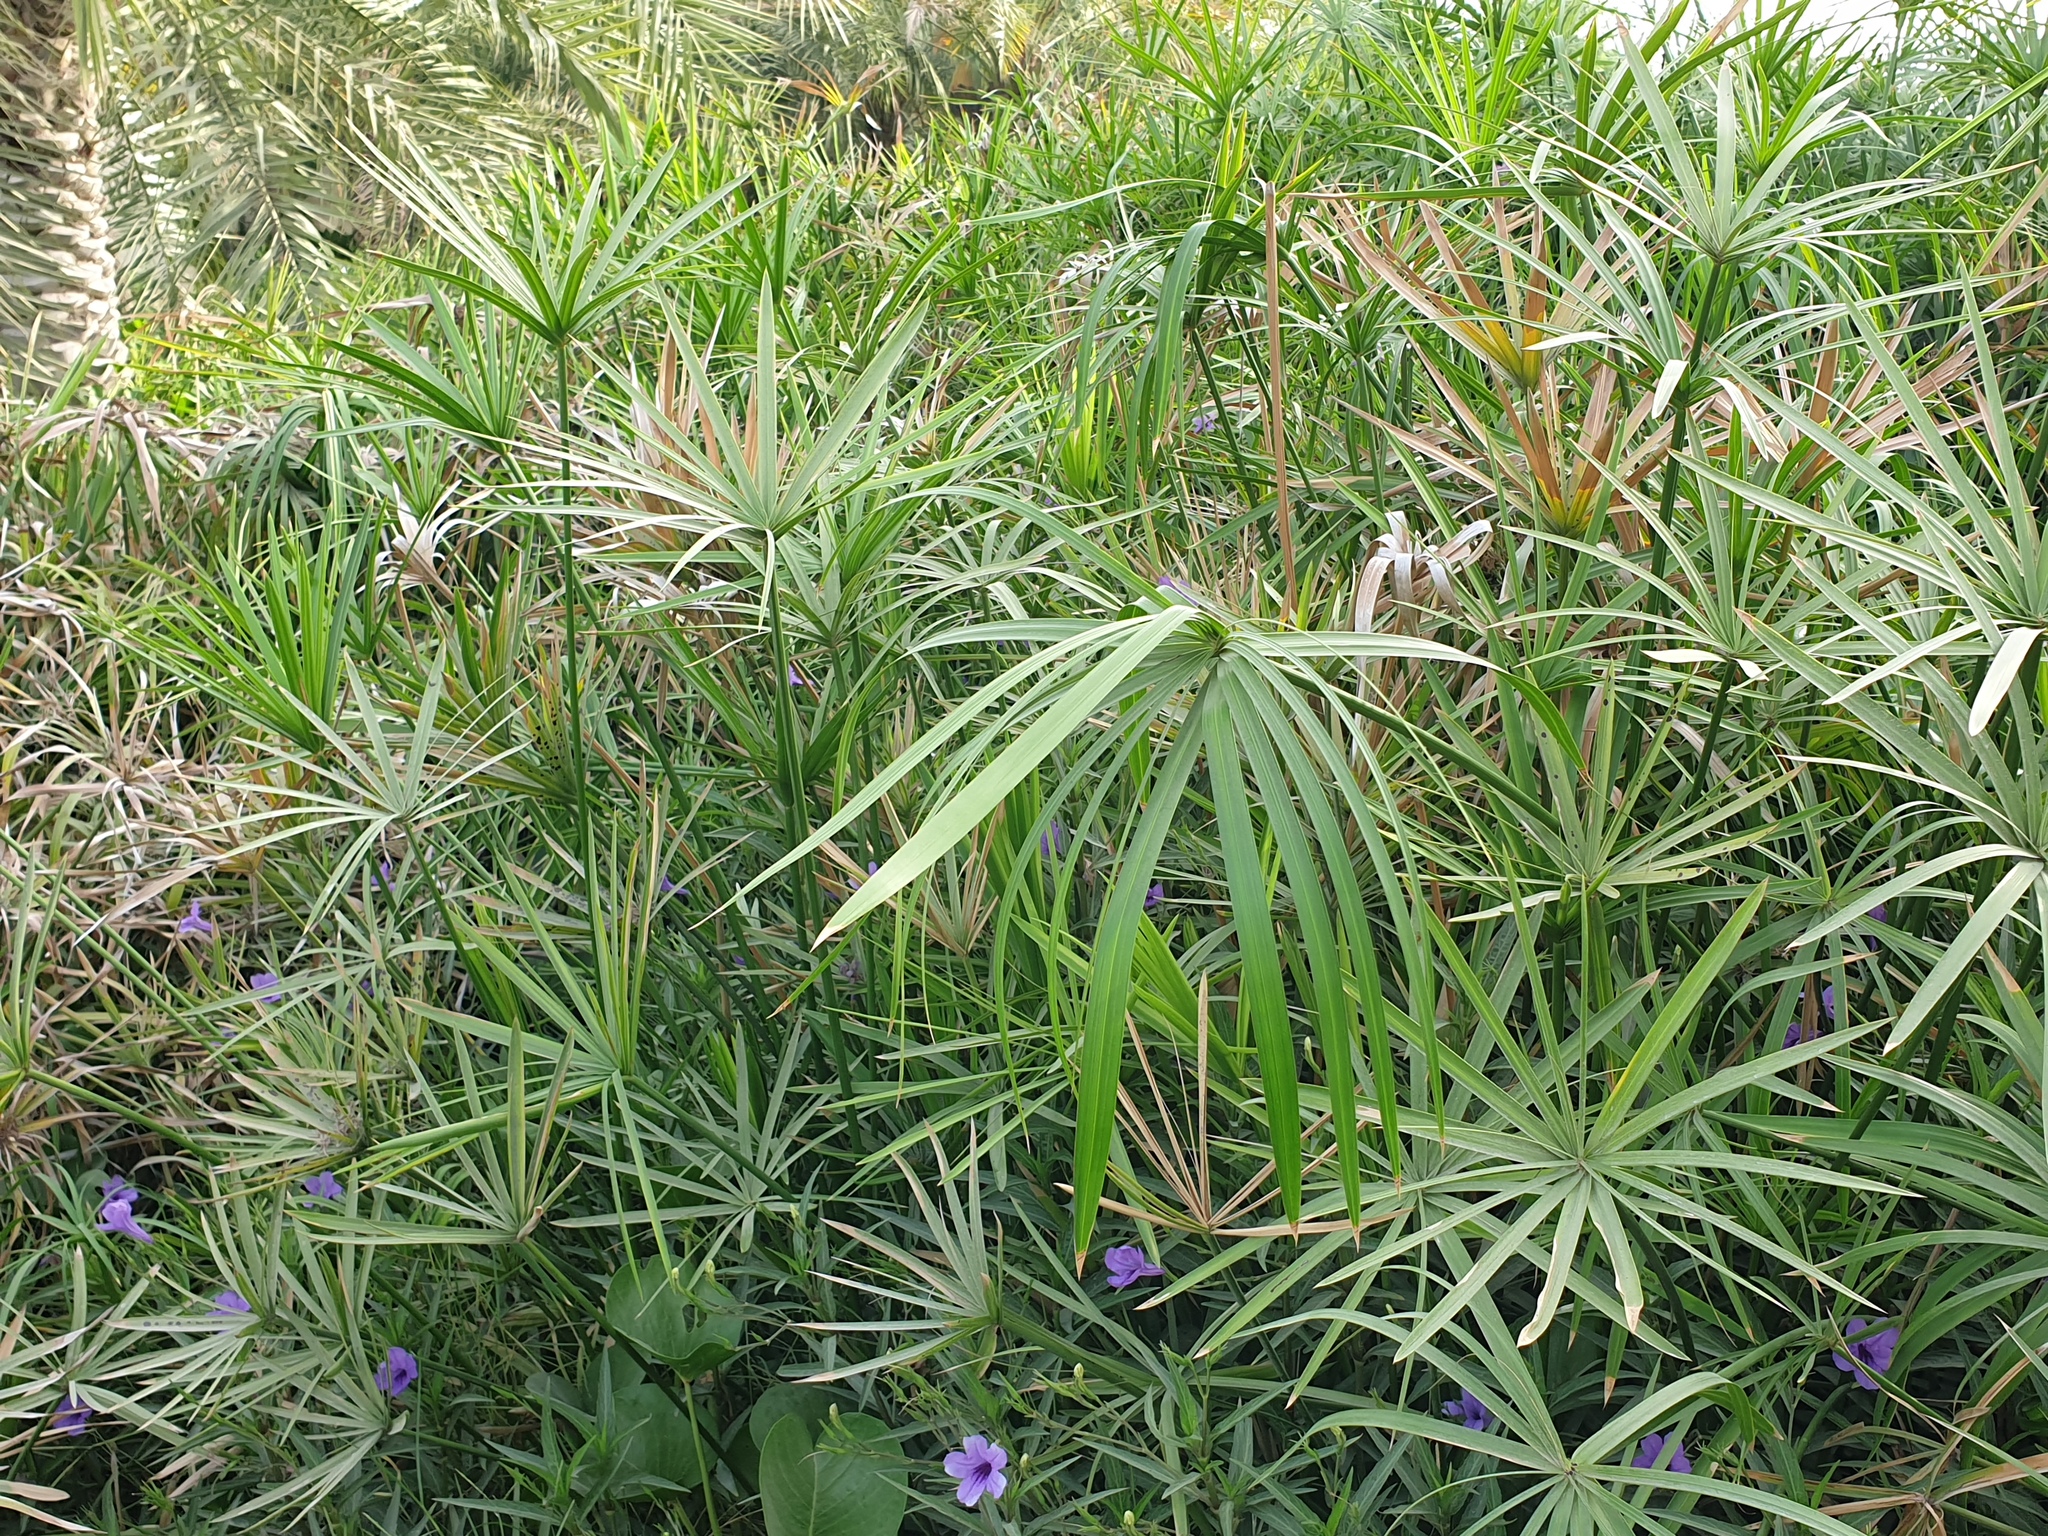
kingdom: Plantae
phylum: Tracheophyta
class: Liliopsida
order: Poales
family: Cyperaceae
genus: Cyperus
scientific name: Cyperus alternifolius
